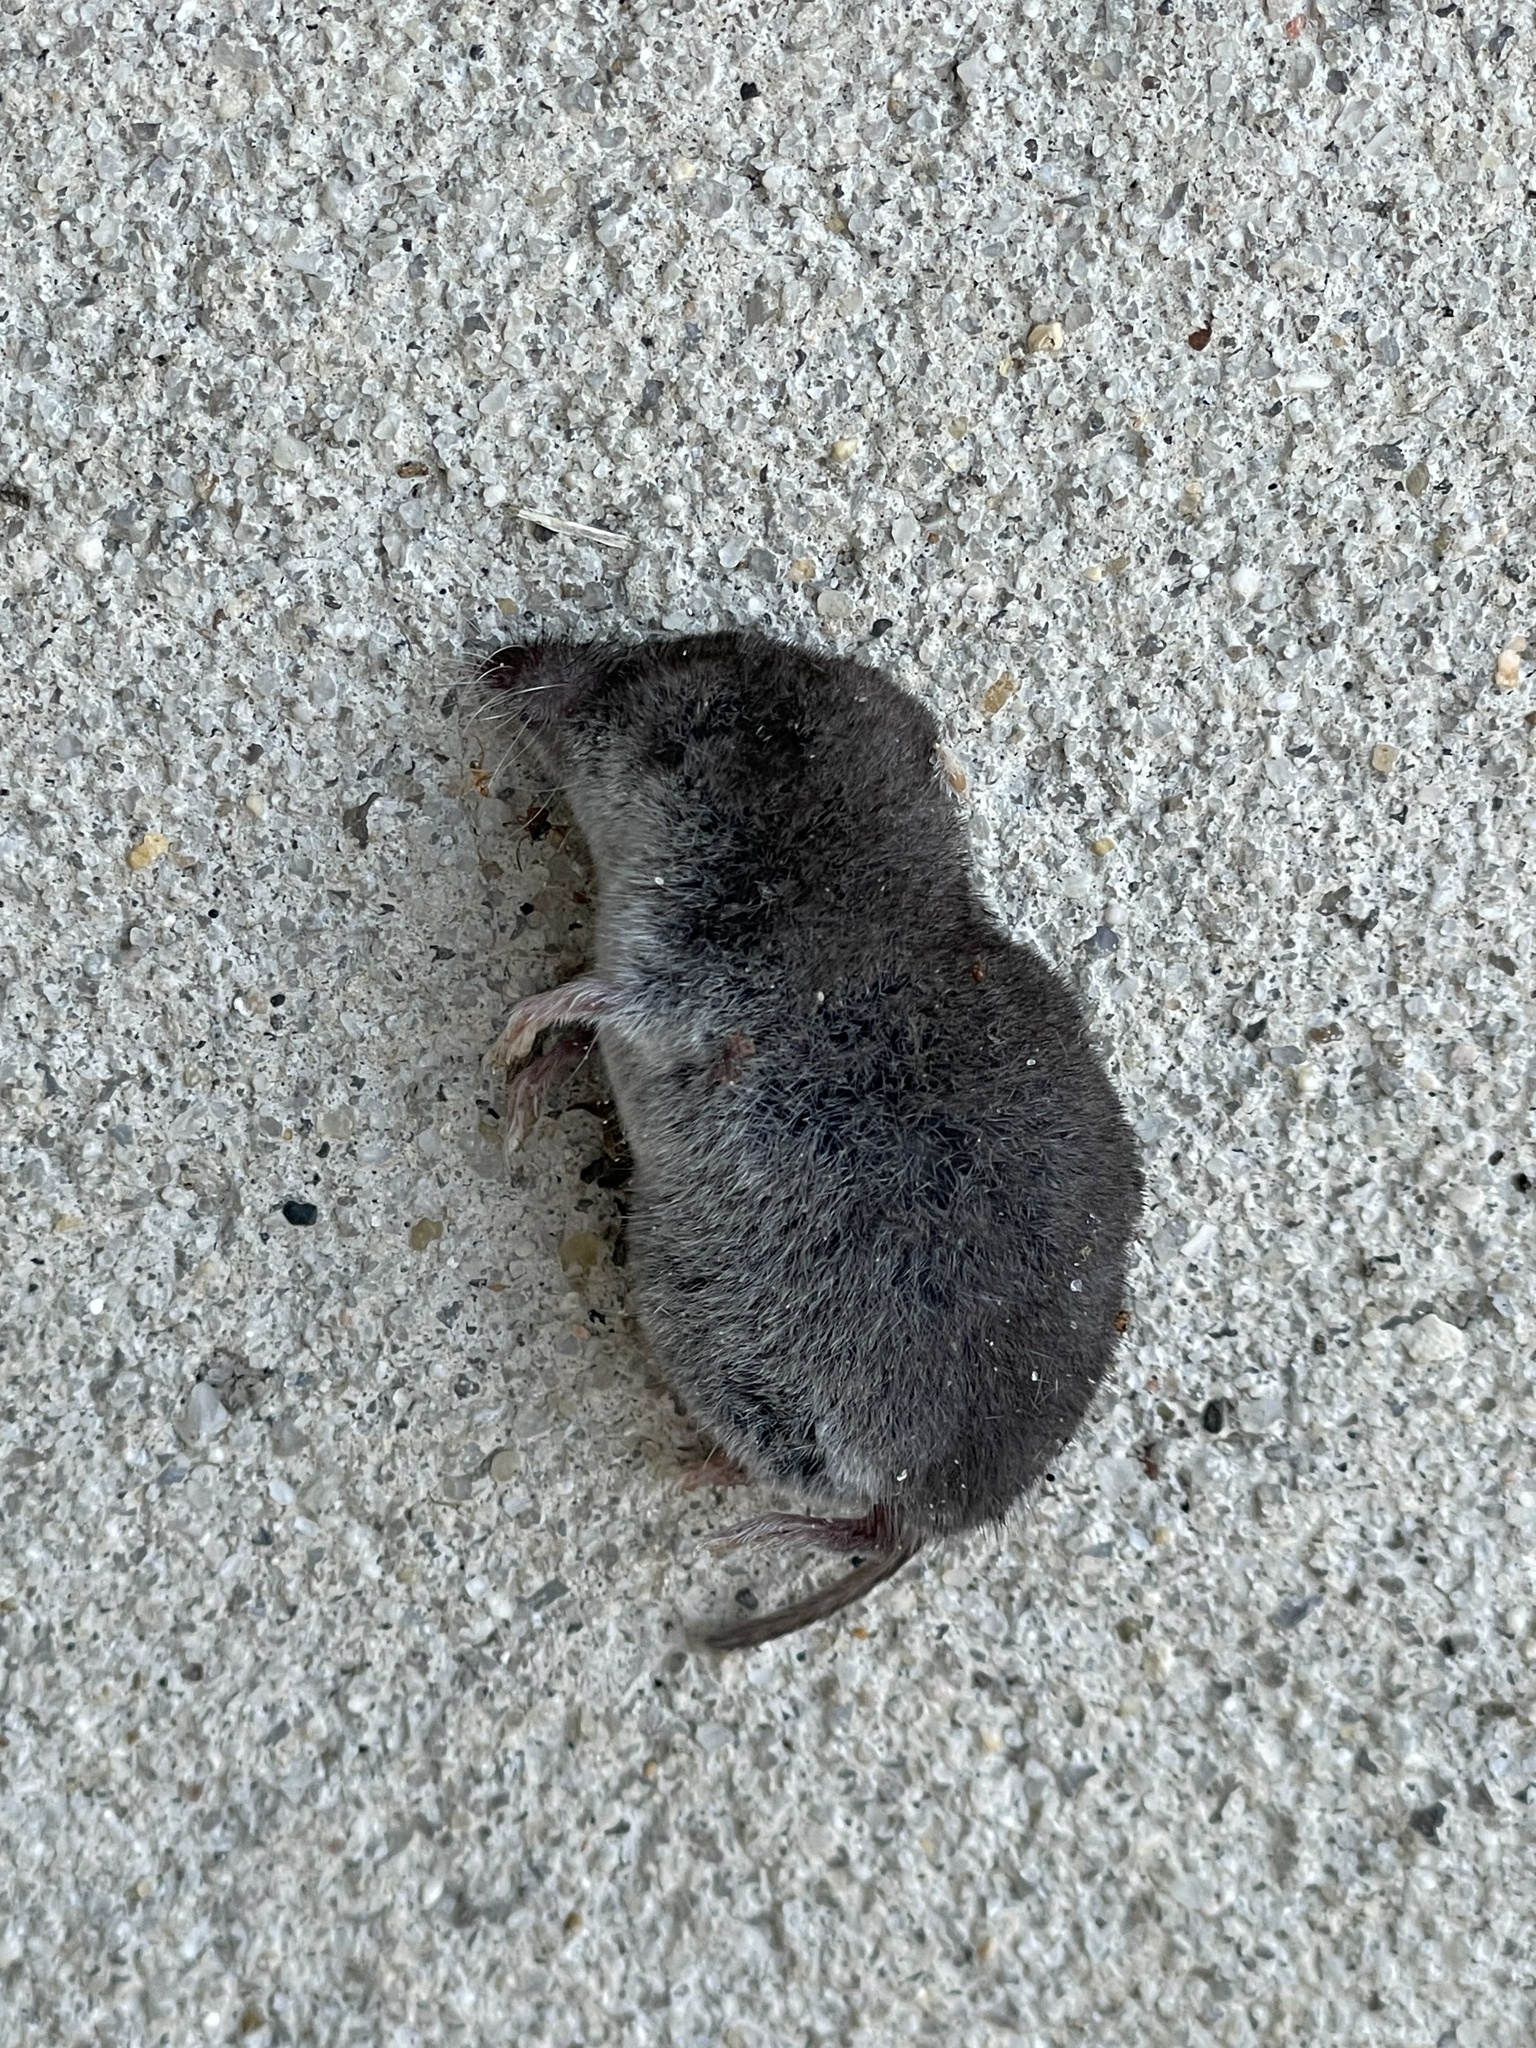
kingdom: Animalia
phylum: Chordata
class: Mammalia
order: Soricomorpha
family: Soricidae
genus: Blarina
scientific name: Blarina brevicauda
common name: Northern short-tailed shrew
